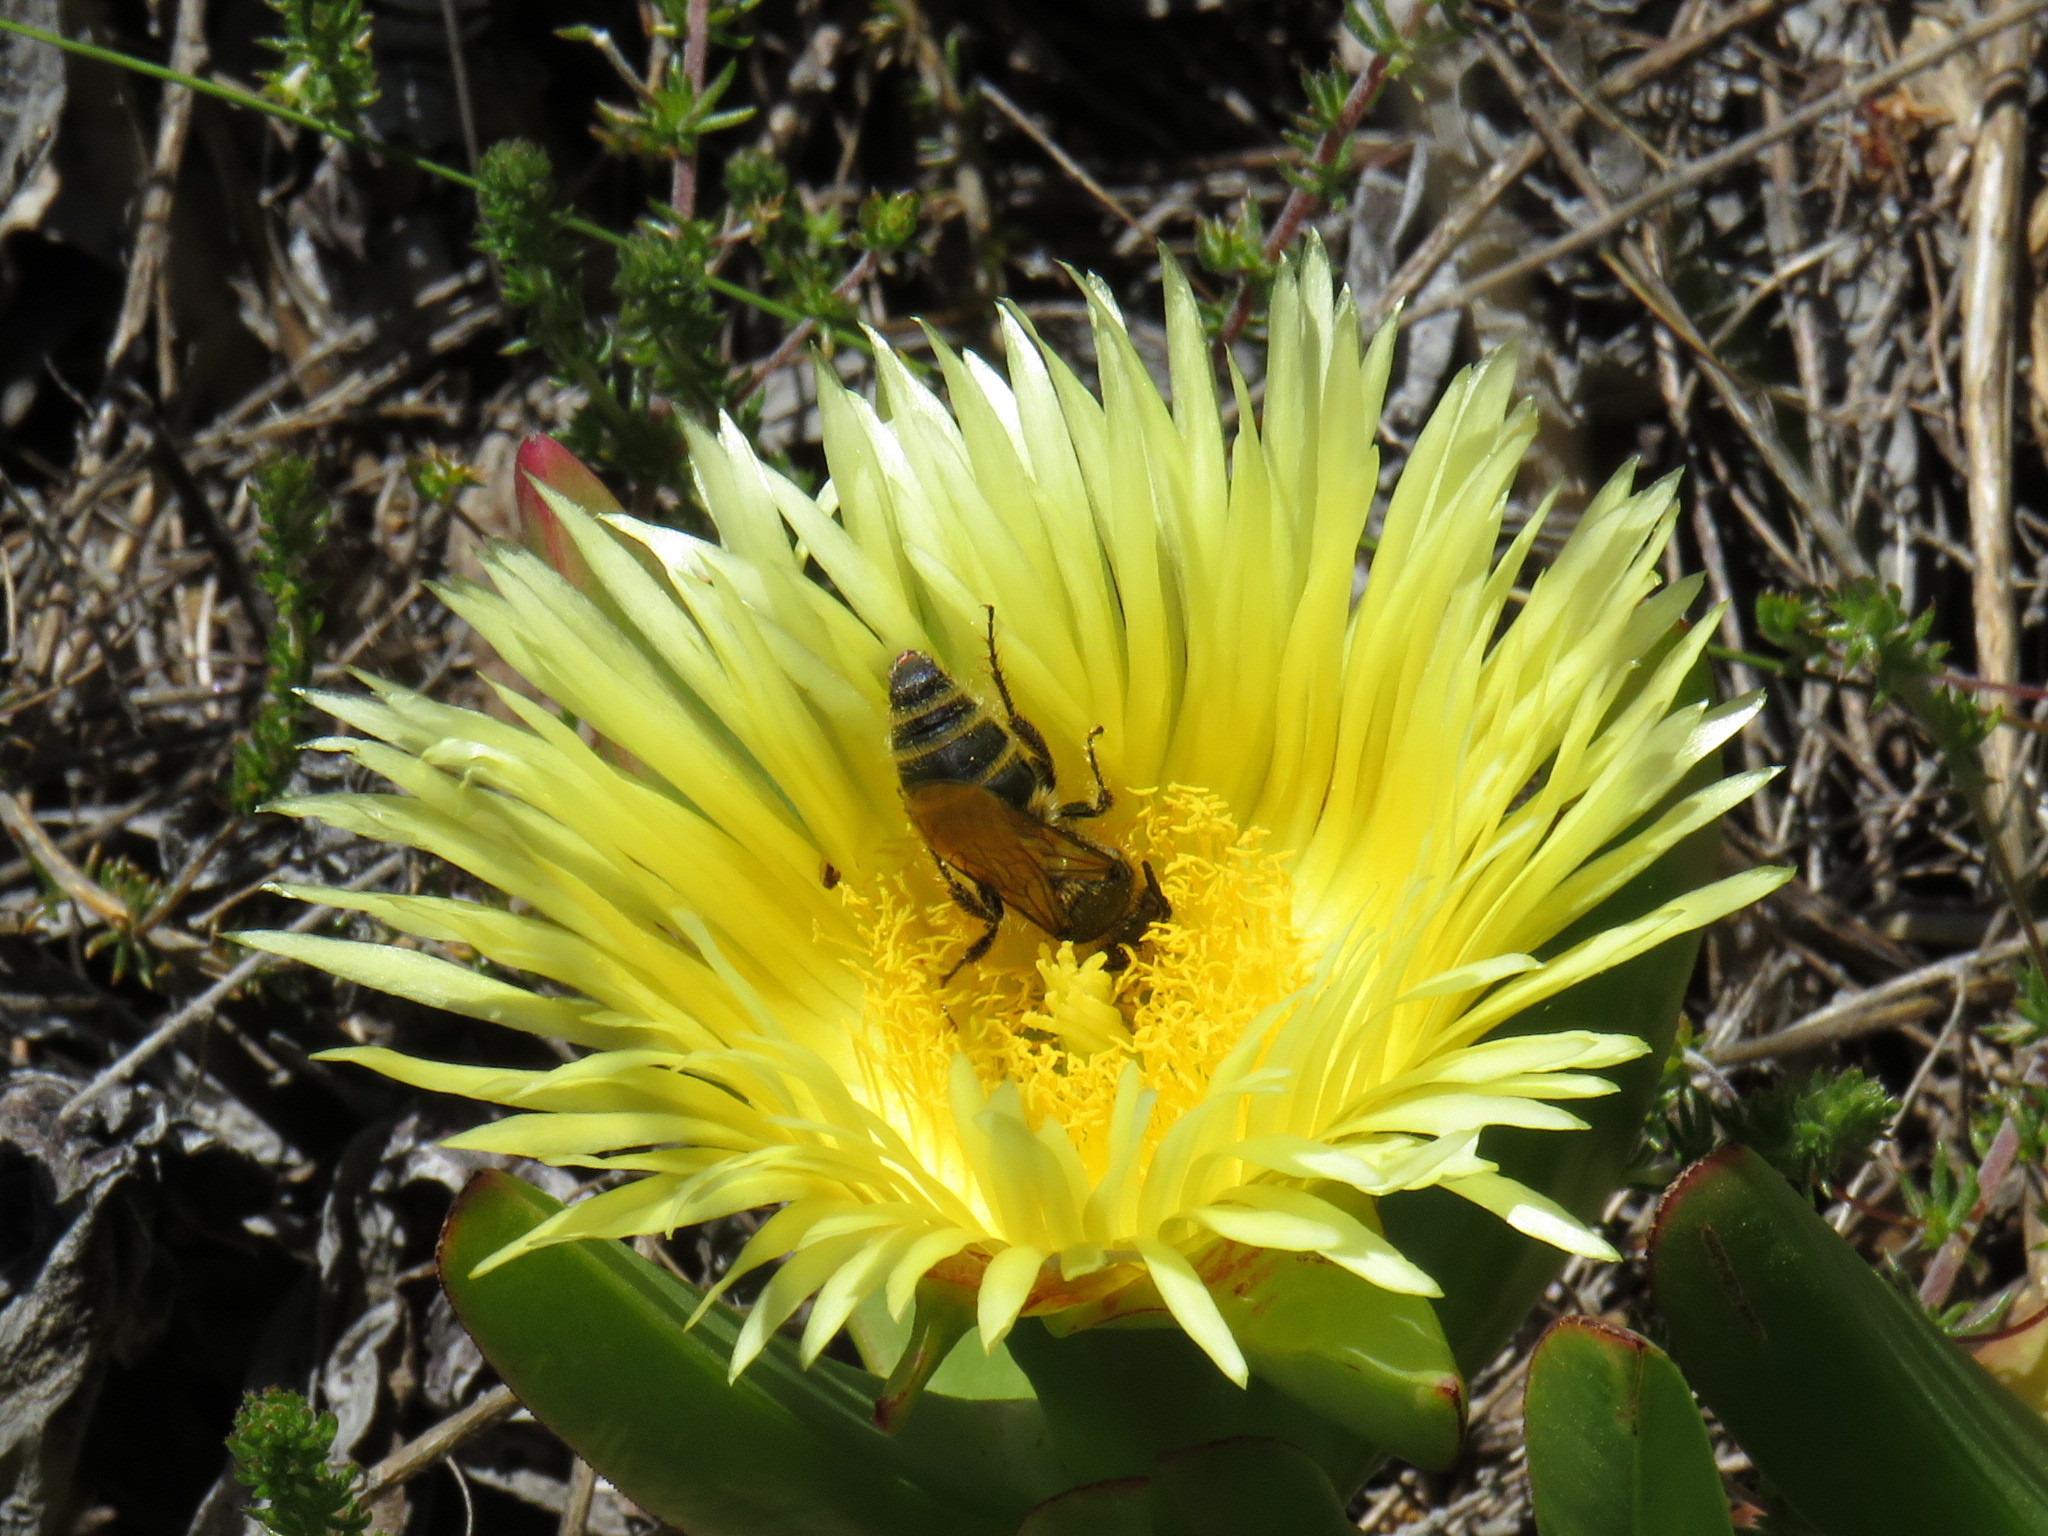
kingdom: Plantae
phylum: Tracheophyta
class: Magnoliopsida
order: Caryophyllales
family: Aizoaceae
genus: Carpobrotus
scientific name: Carpobrotus edulis
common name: Hottentot-fig
